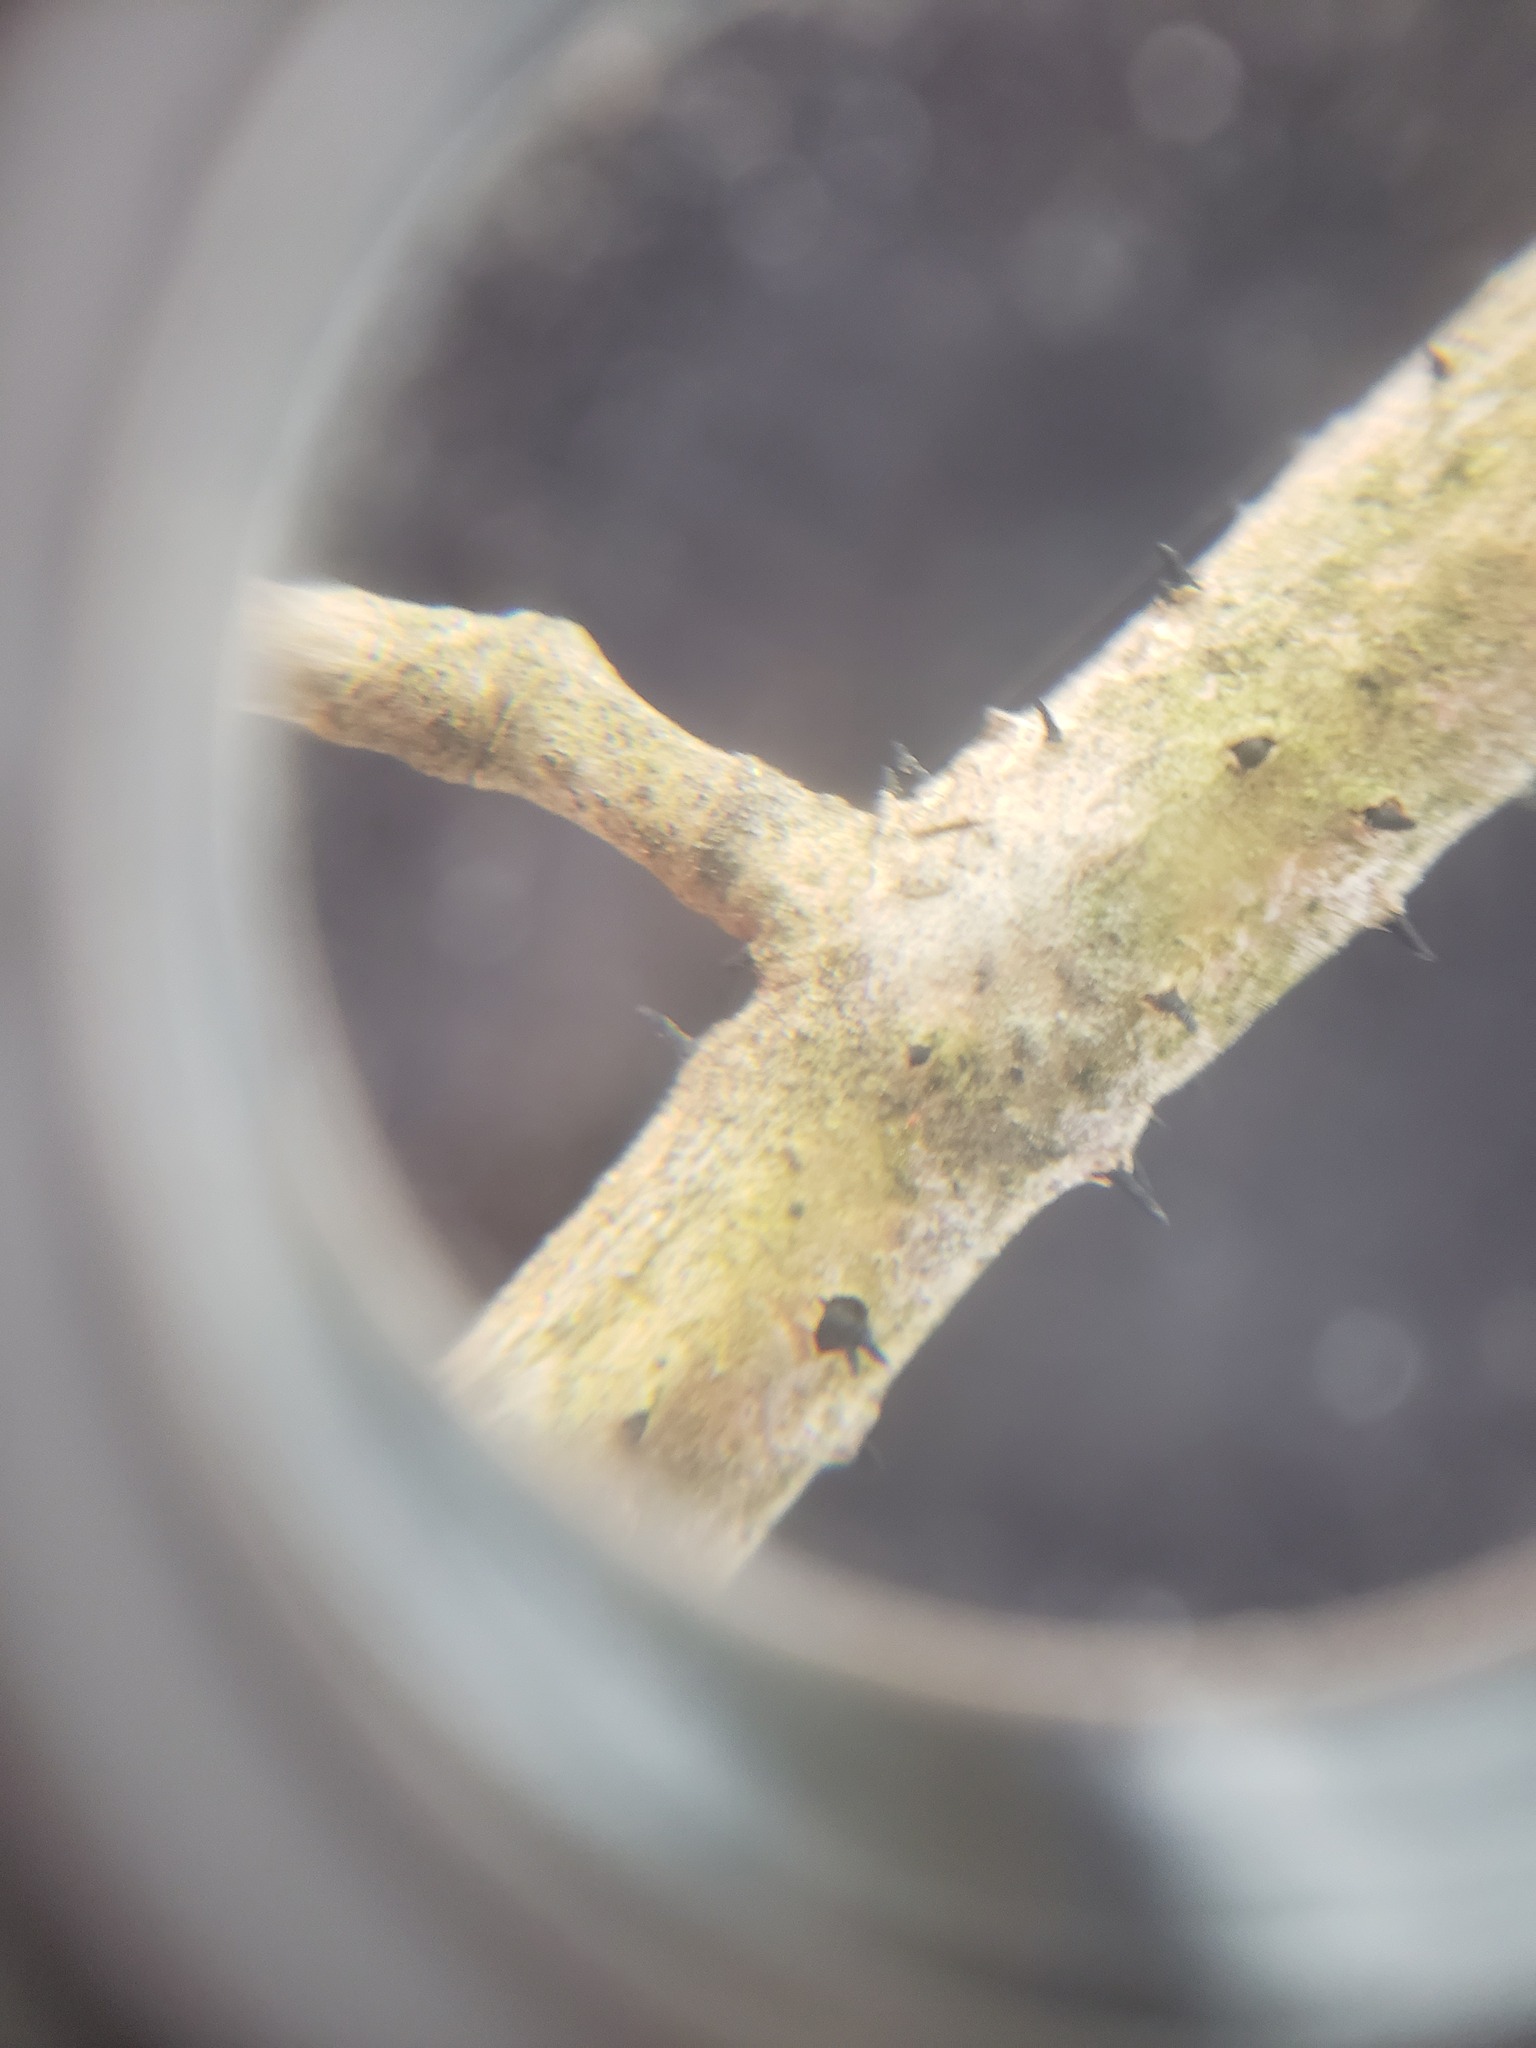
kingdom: Fungi
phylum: Ascomycota
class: Leotiomycetes
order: Leotiales
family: Tympanidaceae
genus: Durandiella
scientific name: Durandiella fraxini
